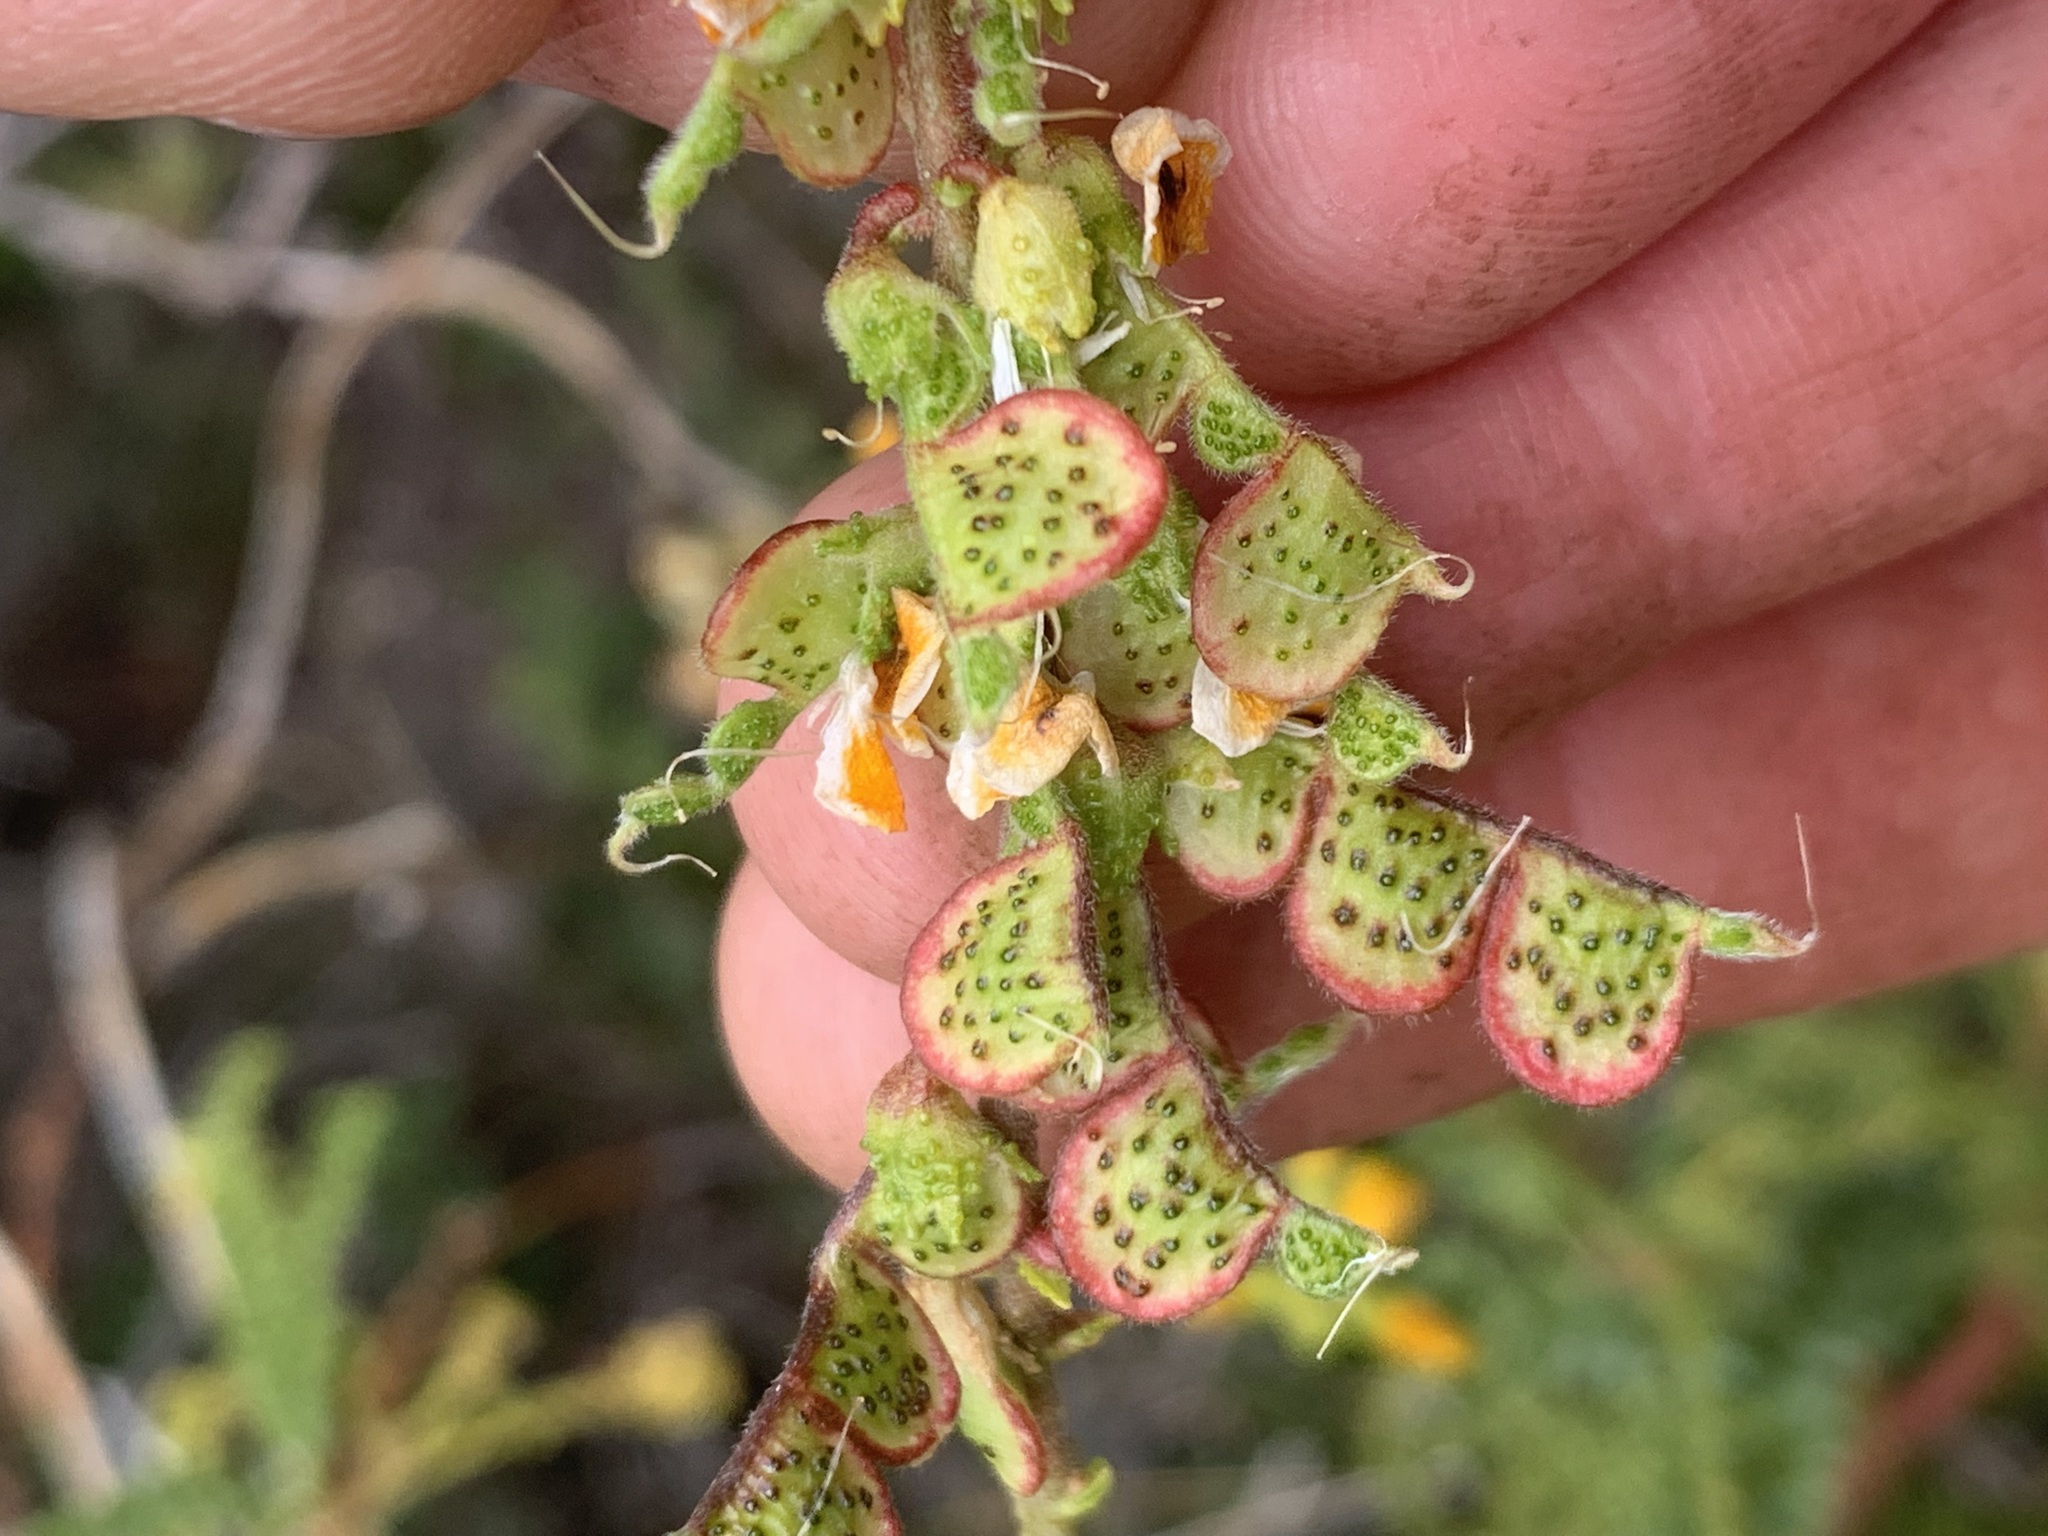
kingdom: Plantae
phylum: Tracheophyta
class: Magnoliopsida
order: Fabales
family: Fabaceae
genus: Adesmia
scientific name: Adesmia boronioides
